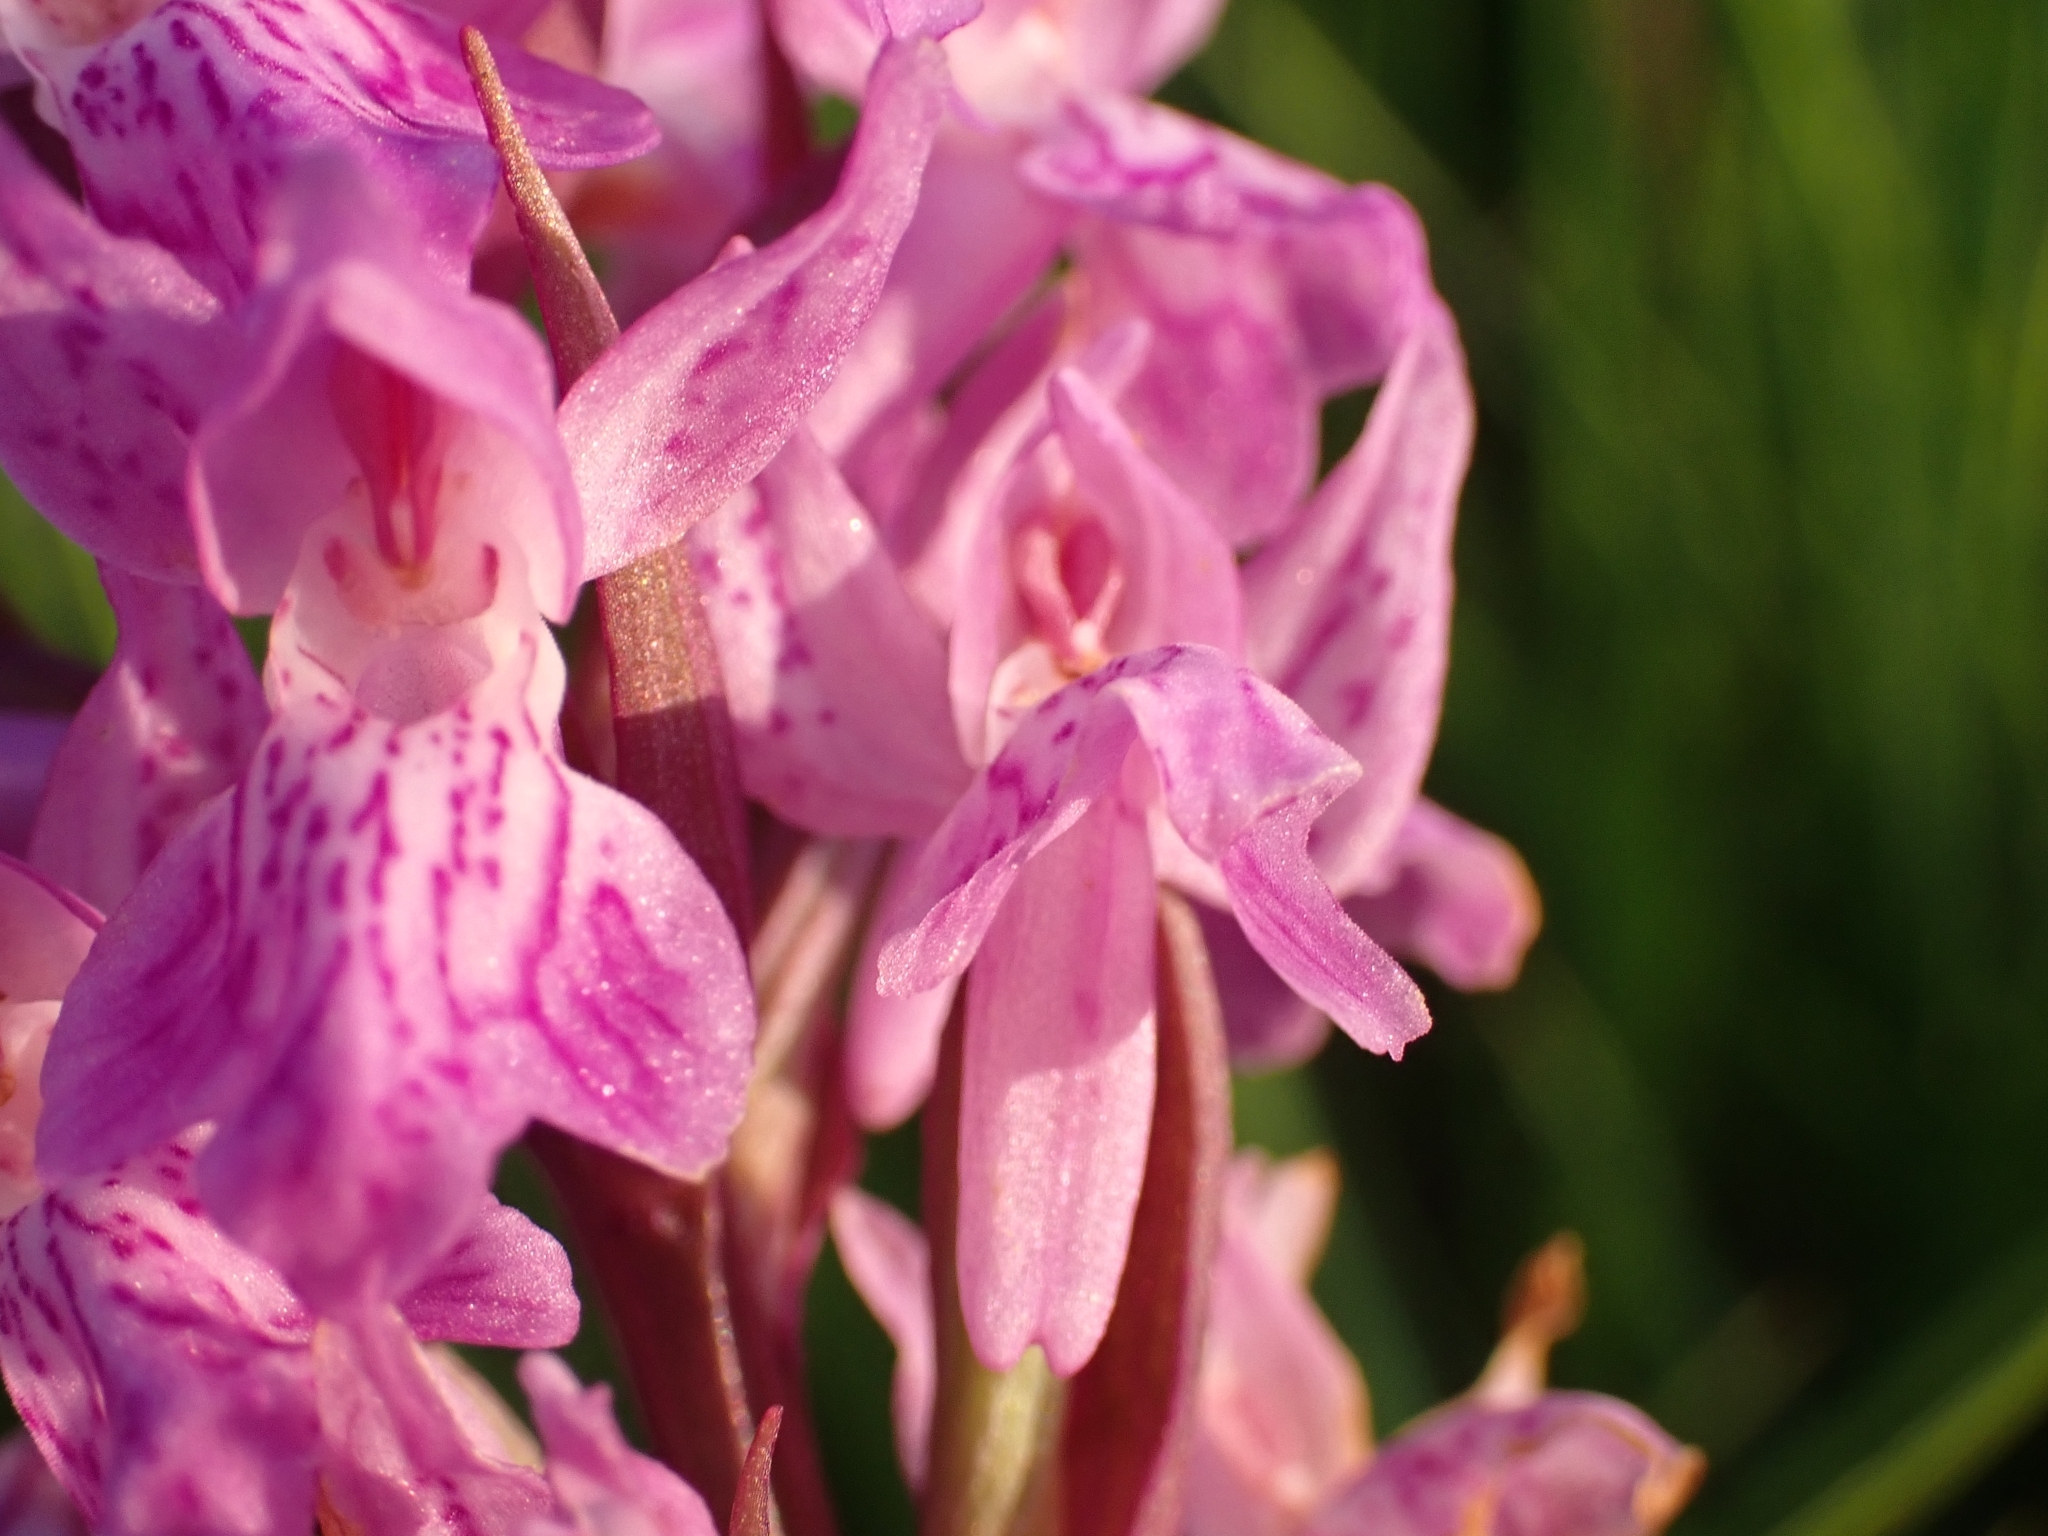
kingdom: Plantae
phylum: Tracheophyta
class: Liliopsida
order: Asparagales
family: Orchidaceae
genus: Dactylorhiza
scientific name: Dactylorhiza incarnata
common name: Early marsh-orchid
